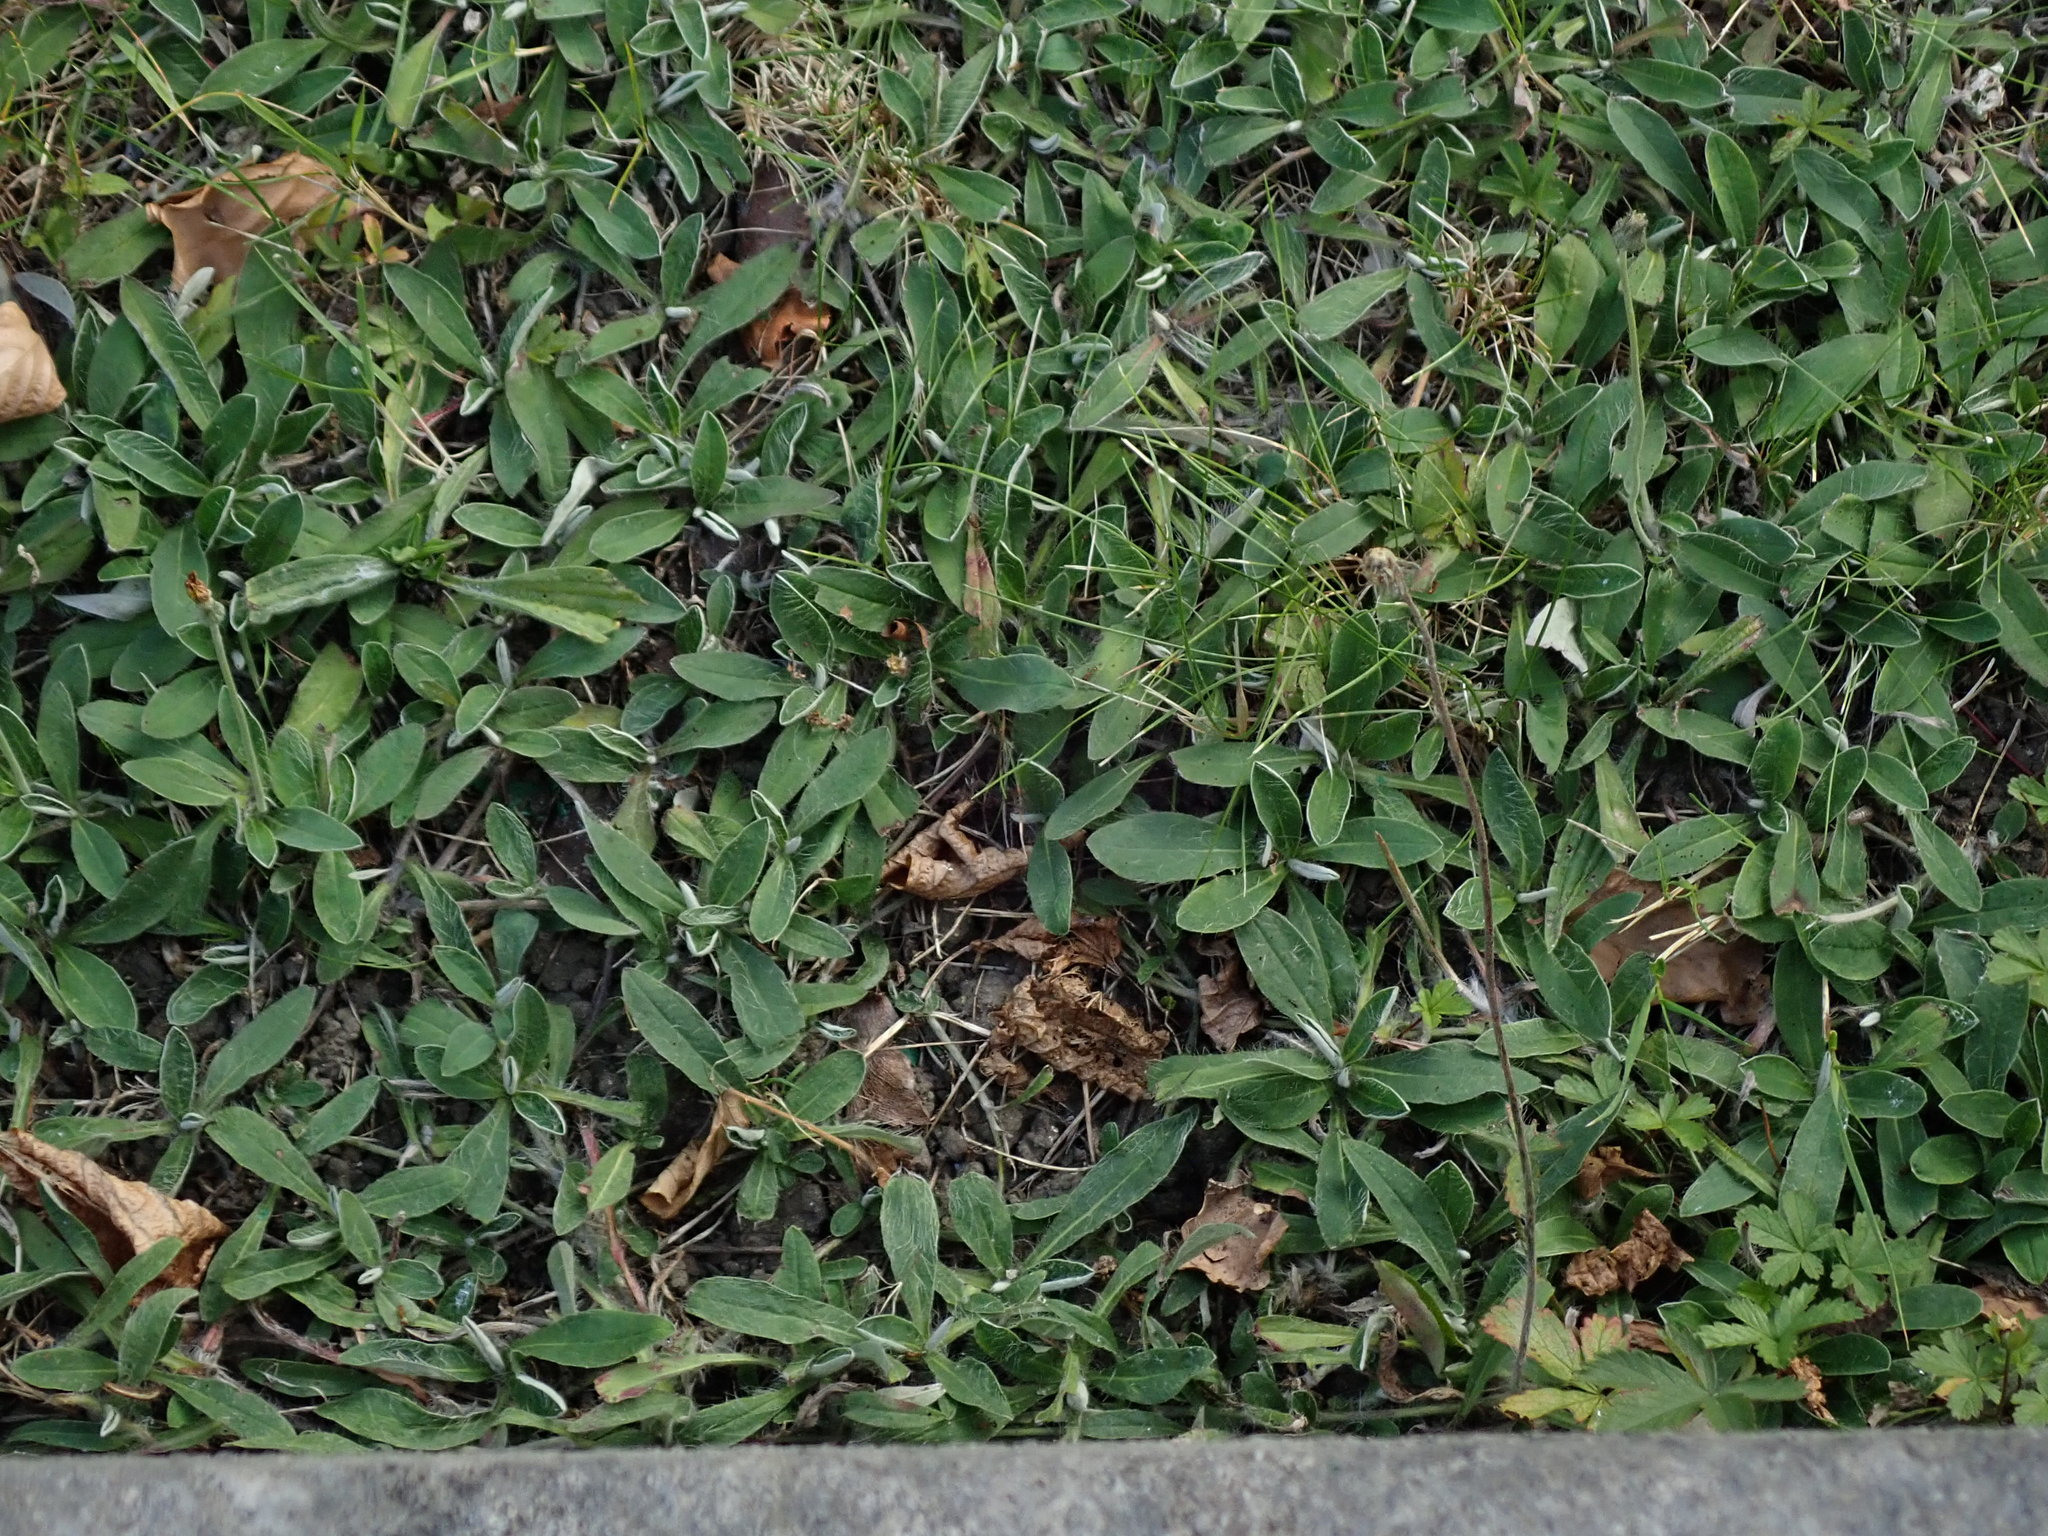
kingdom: Plantae
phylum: Tracheophyta
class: Magnoliopsida
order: Asterales
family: Asteraceae
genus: Pilosella
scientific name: Pilosella officinarum
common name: Mouse-ear hawkweed
